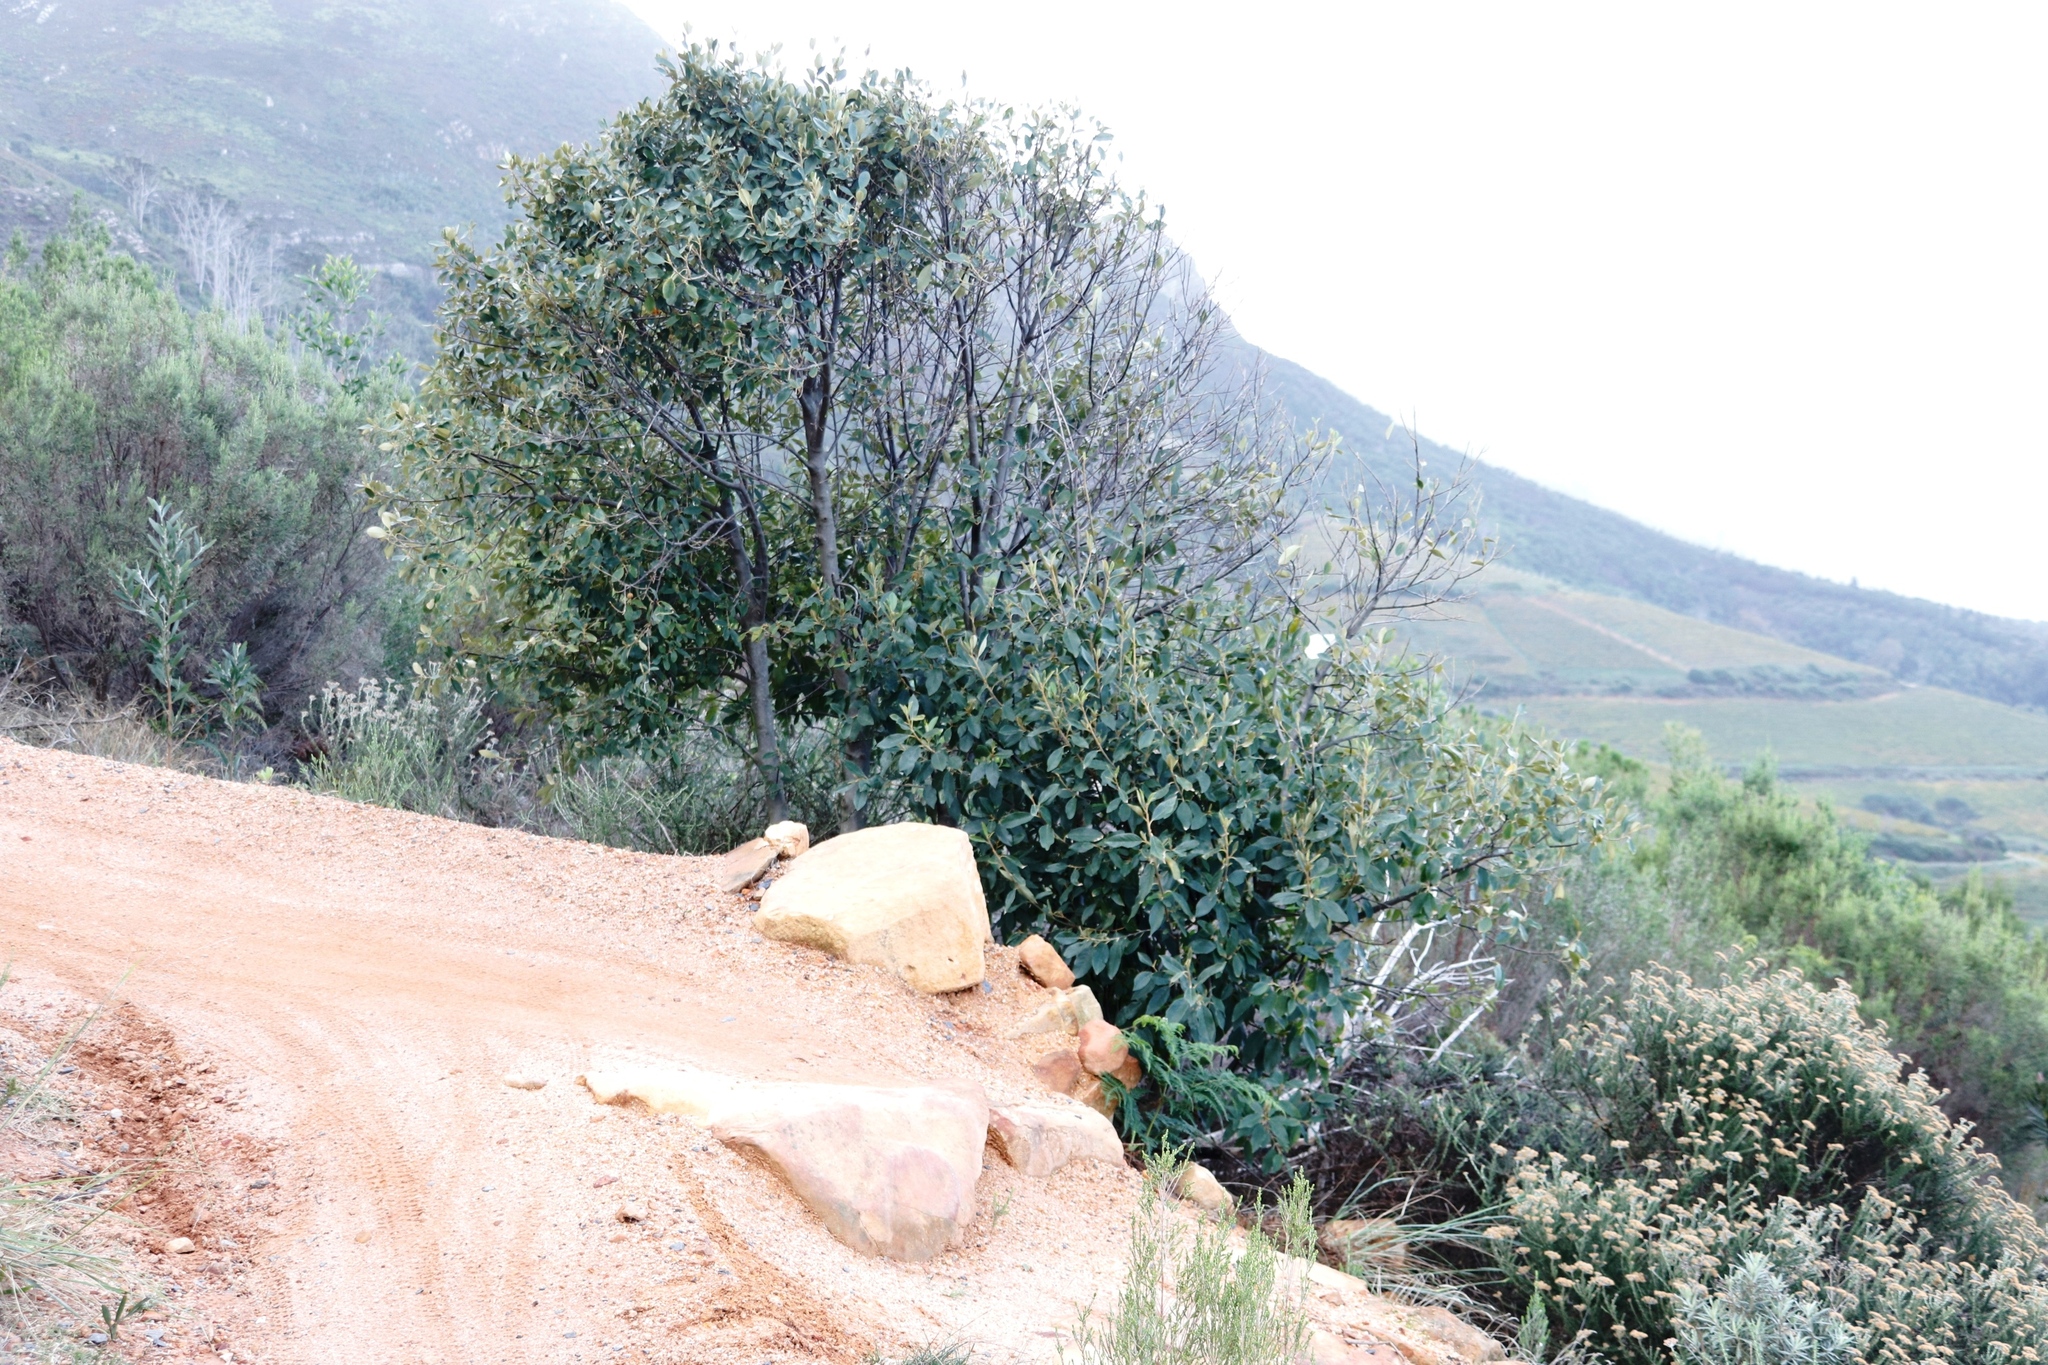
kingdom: Plantae
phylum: Tracheophyta
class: Magnoliopsida
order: Malpighiales
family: Achariaceae
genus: Kiggelaria
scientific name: Kiggelaria africana
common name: Wild peach
